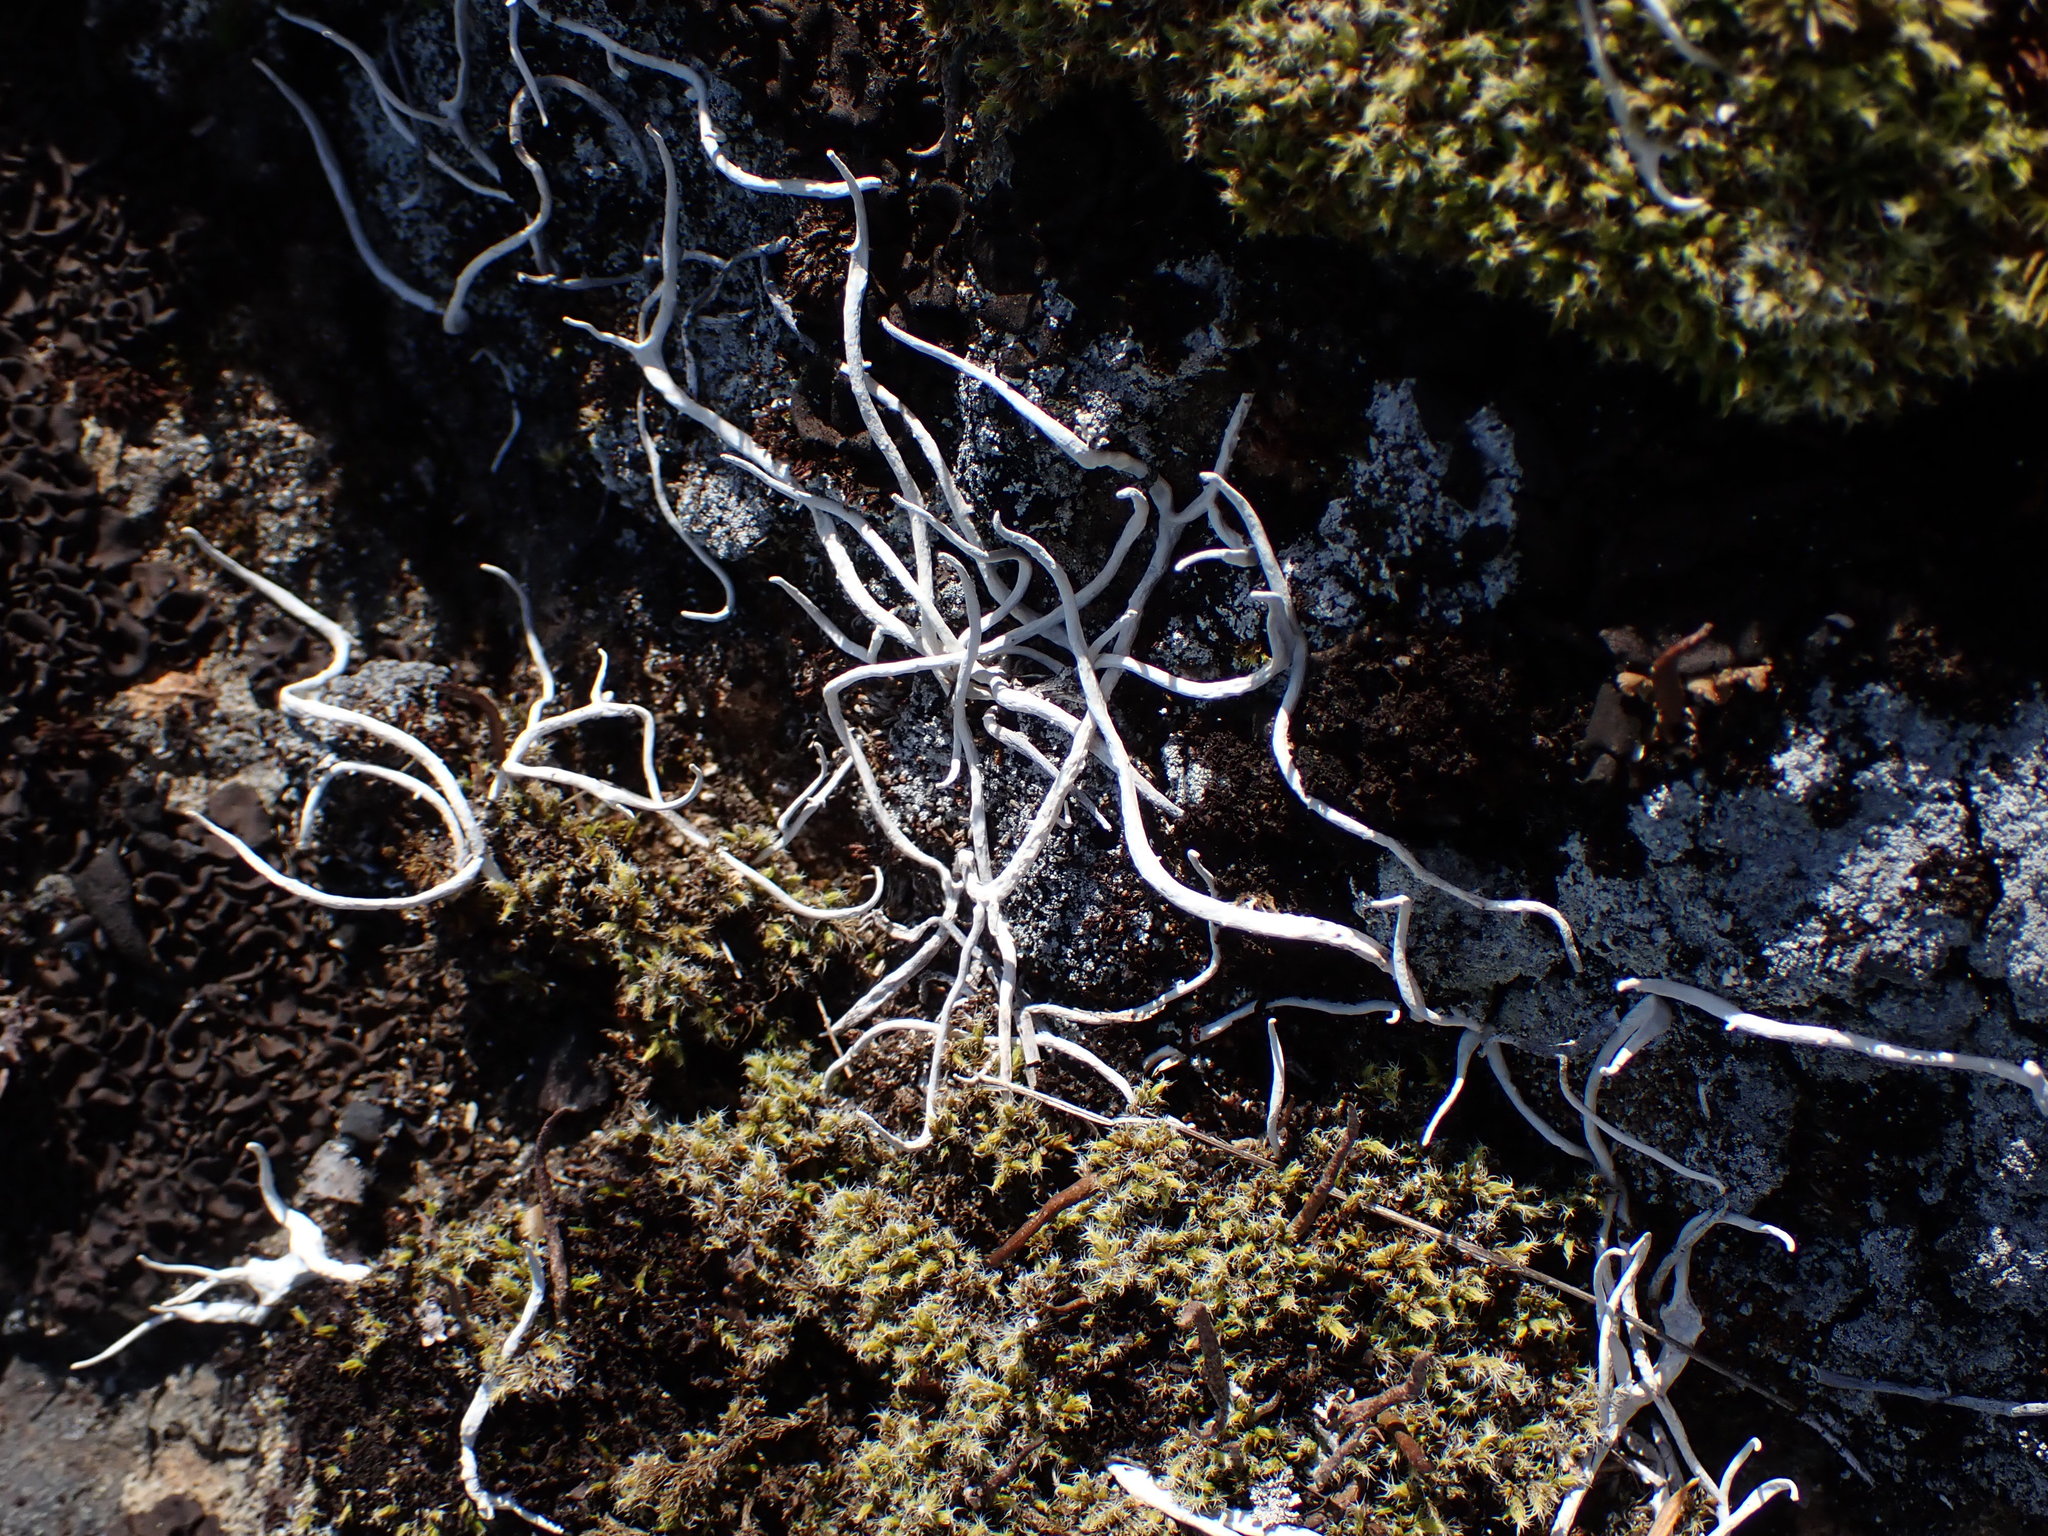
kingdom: Fungi
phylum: Ascomycota
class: Lecanoromycetes
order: Pertusariales
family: Icmadophilaceae
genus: Thamnolia
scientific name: Thamnolia vermicularis
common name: Whiteworm lichen
